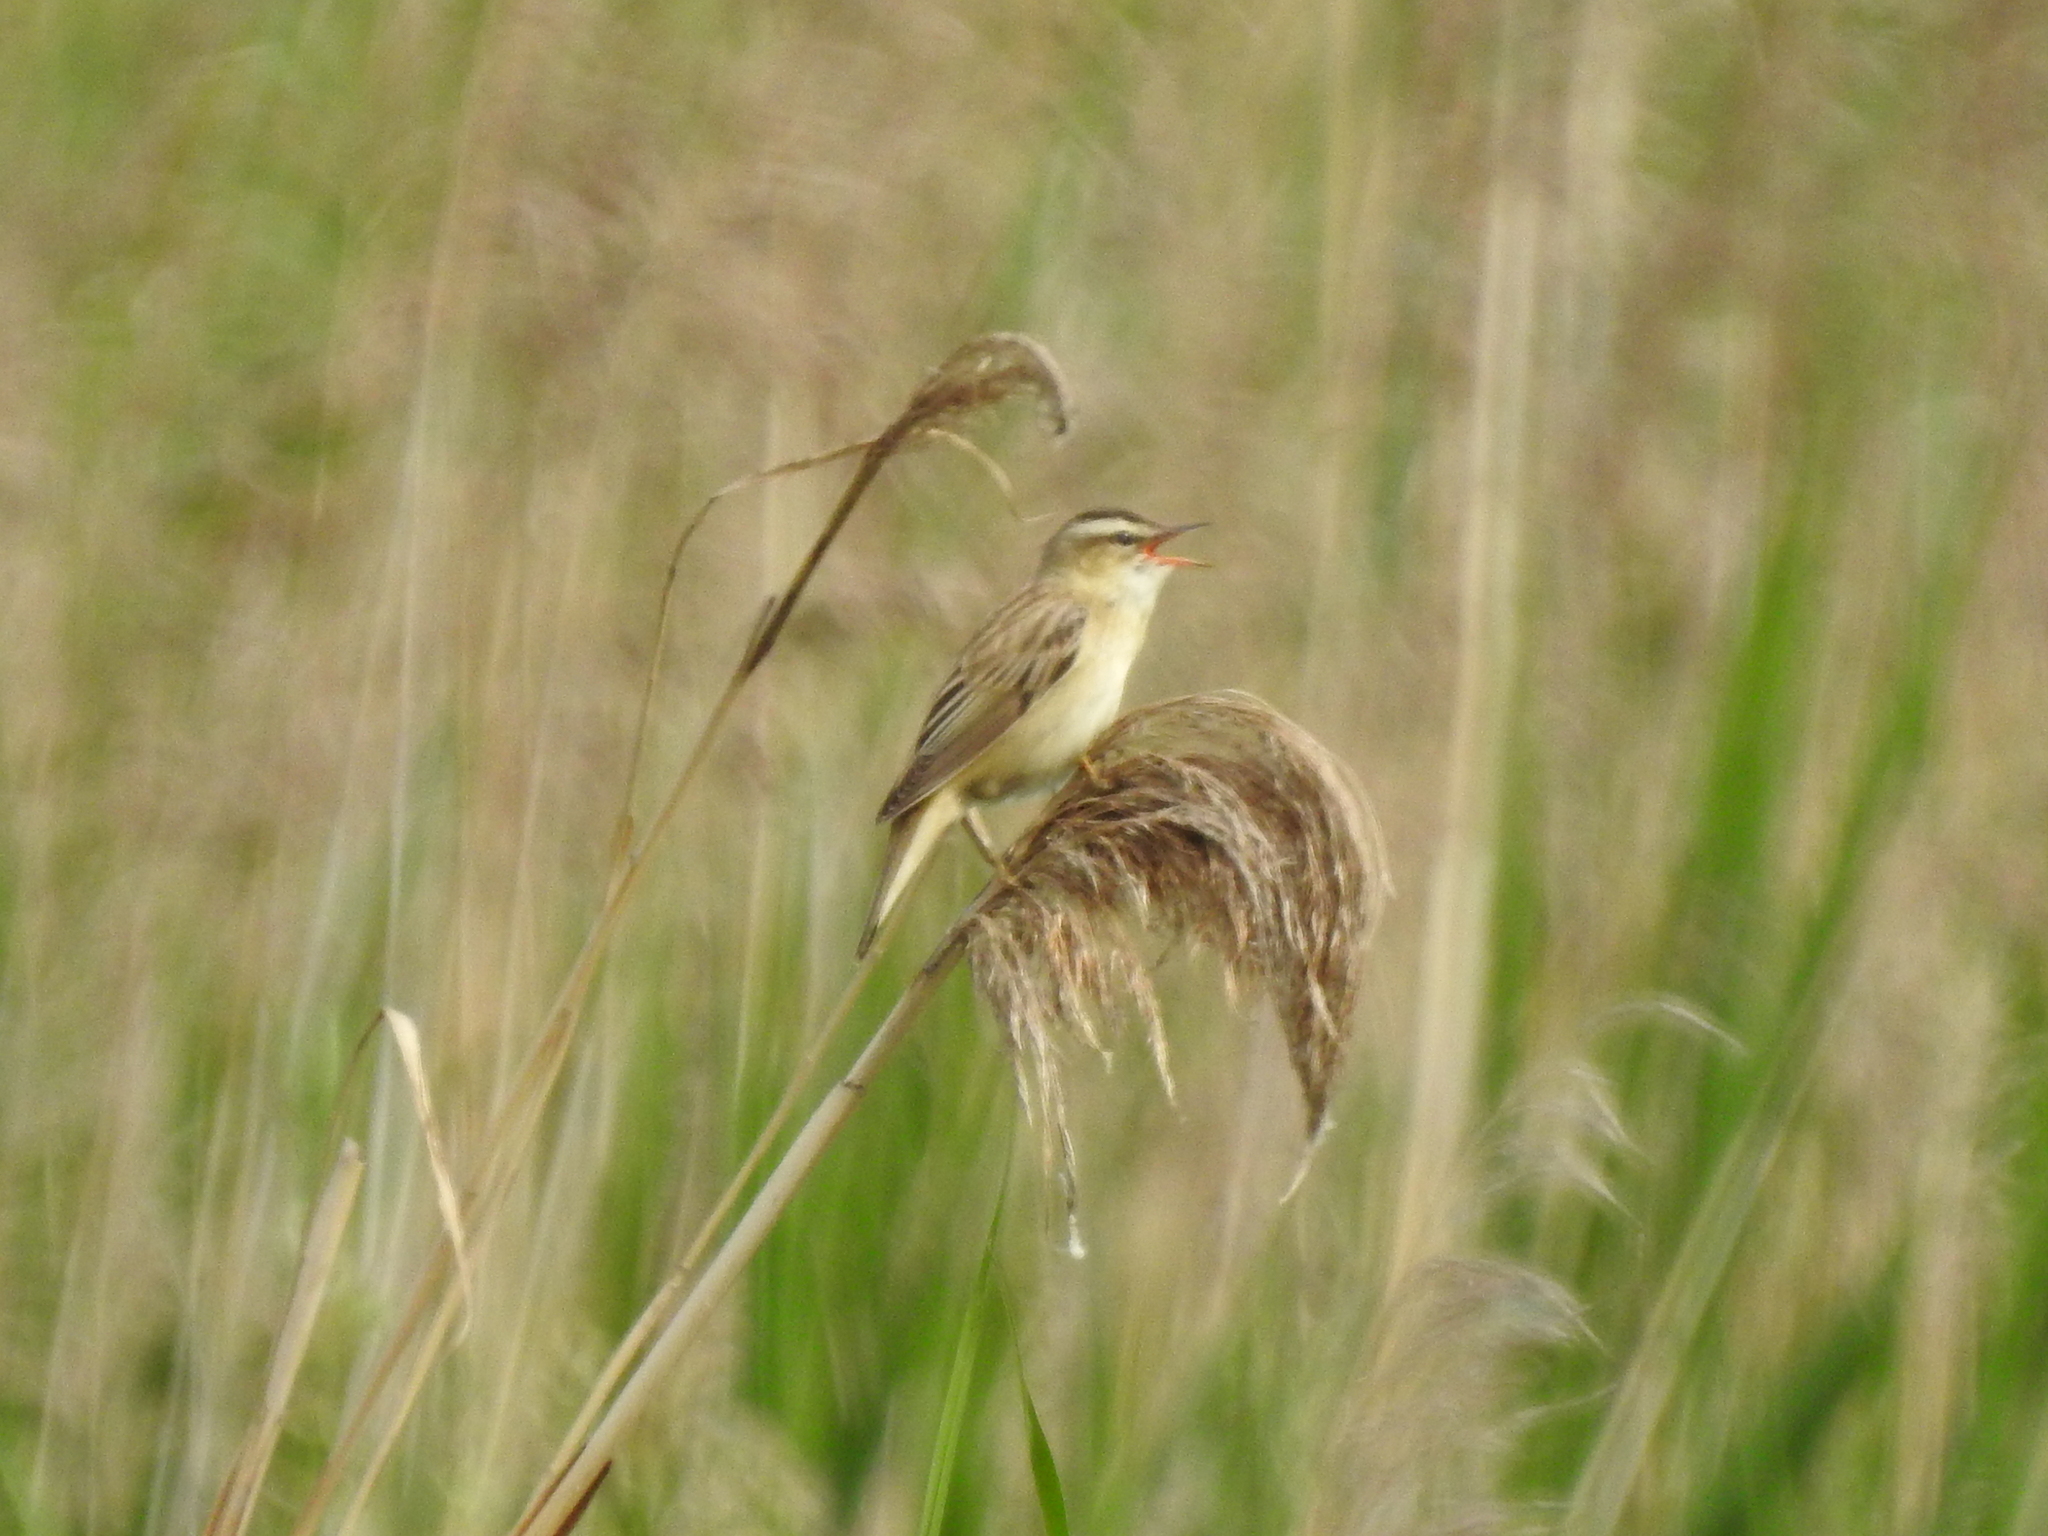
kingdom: Animalia
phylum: Chordata
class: Aves
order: Passeriformes
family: Acrocephalidae
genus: Acrocephalus
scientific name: Acrocephalus schoenobaenus
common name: Sedge warbler
